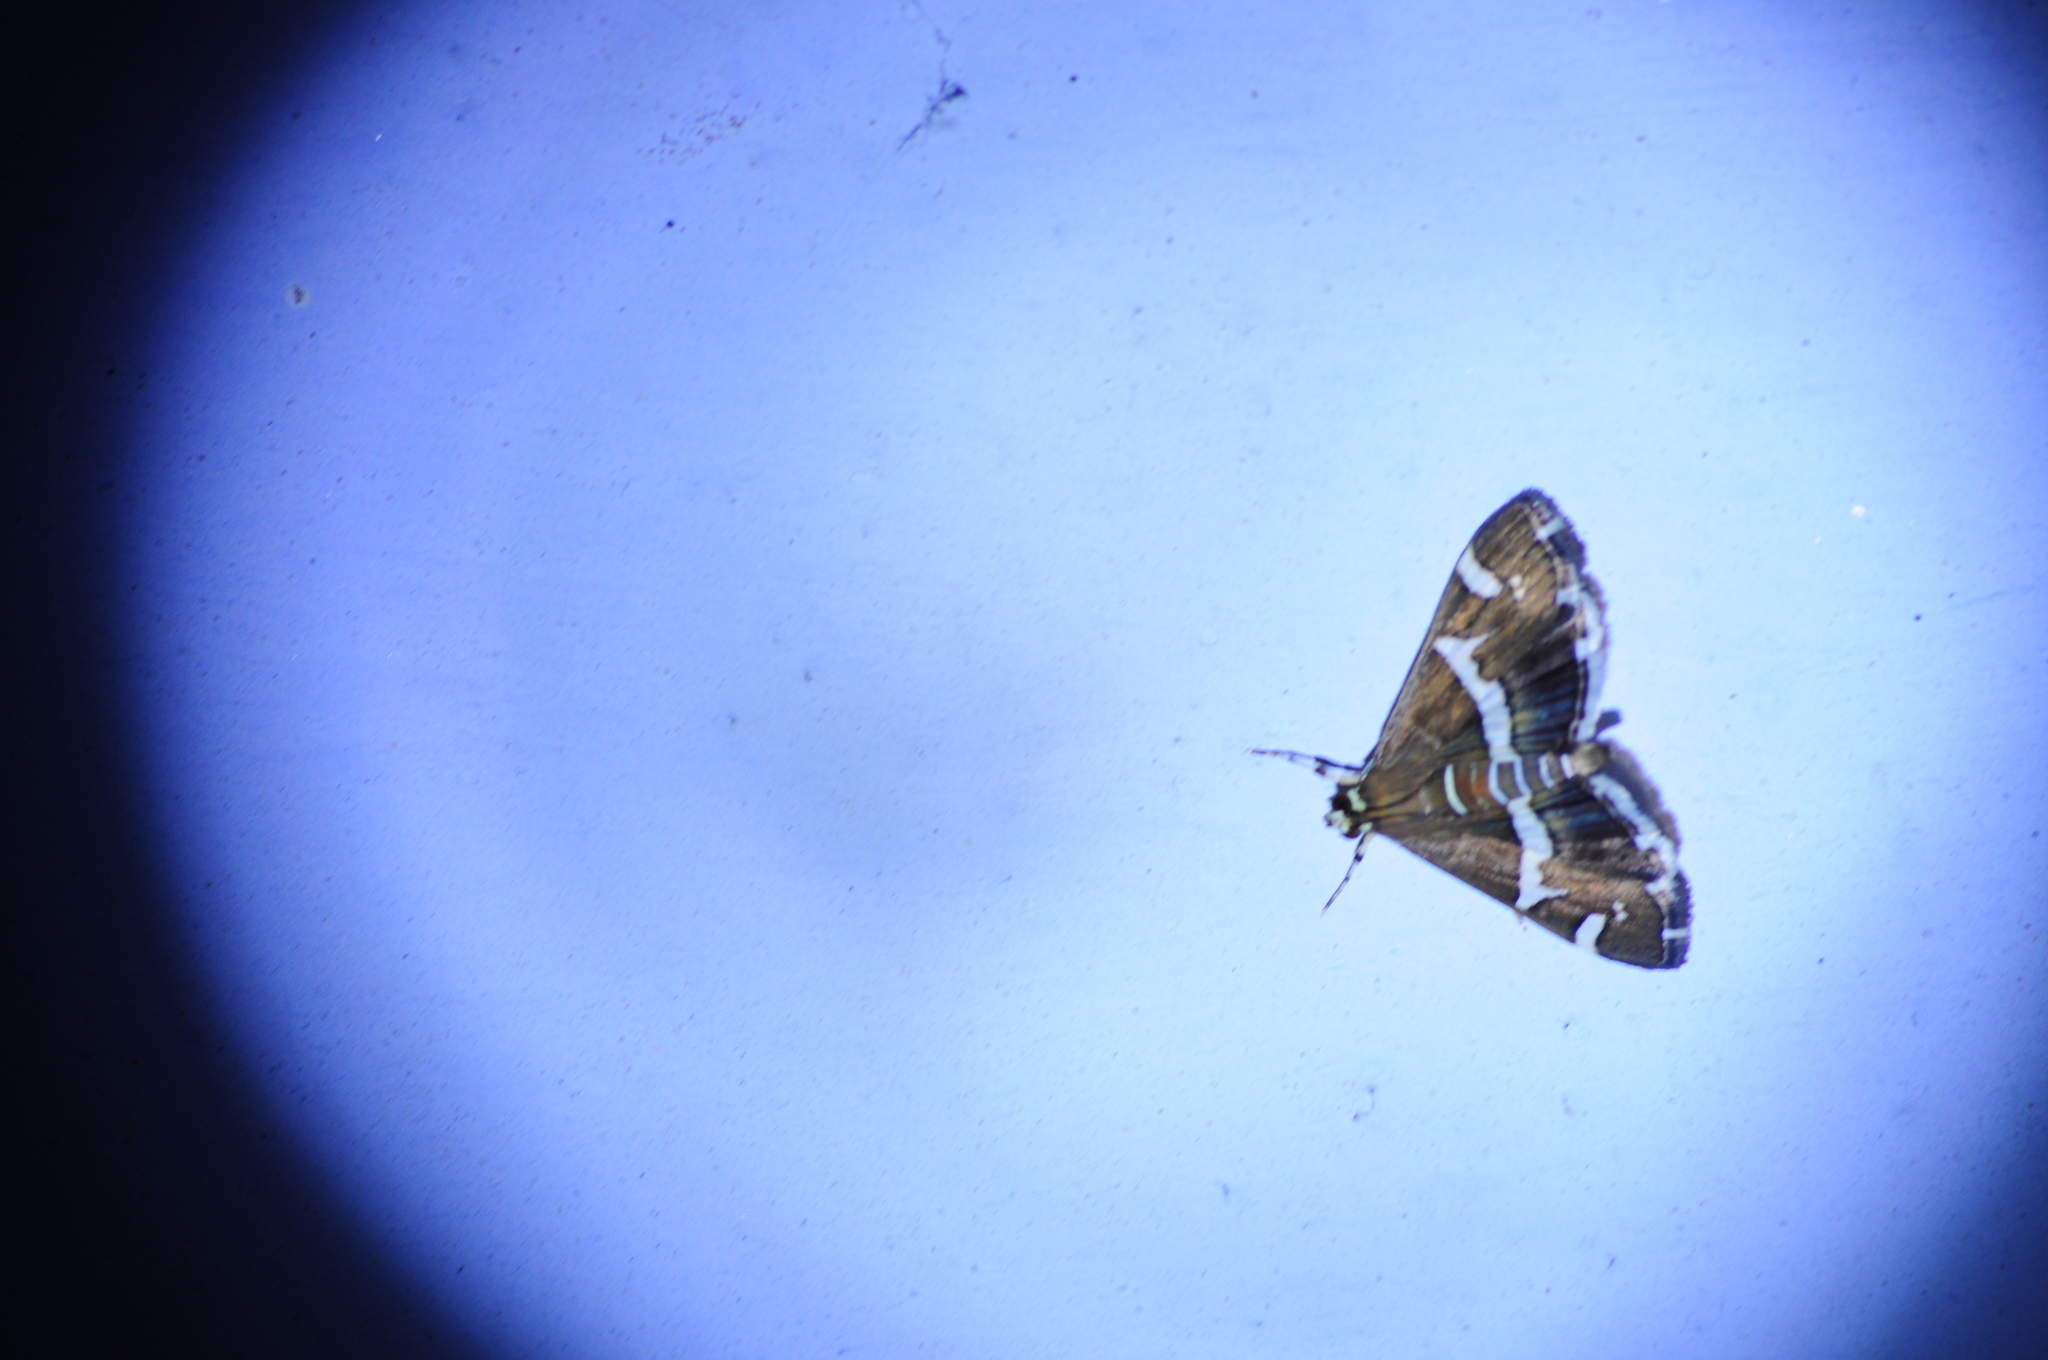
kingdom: Animalia
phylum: Arthropoda
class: Insecta
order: Lepidoptera
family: Crambidae
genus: Spoladea
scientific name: Spoladea recurvalis
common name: Beet webworm moth
